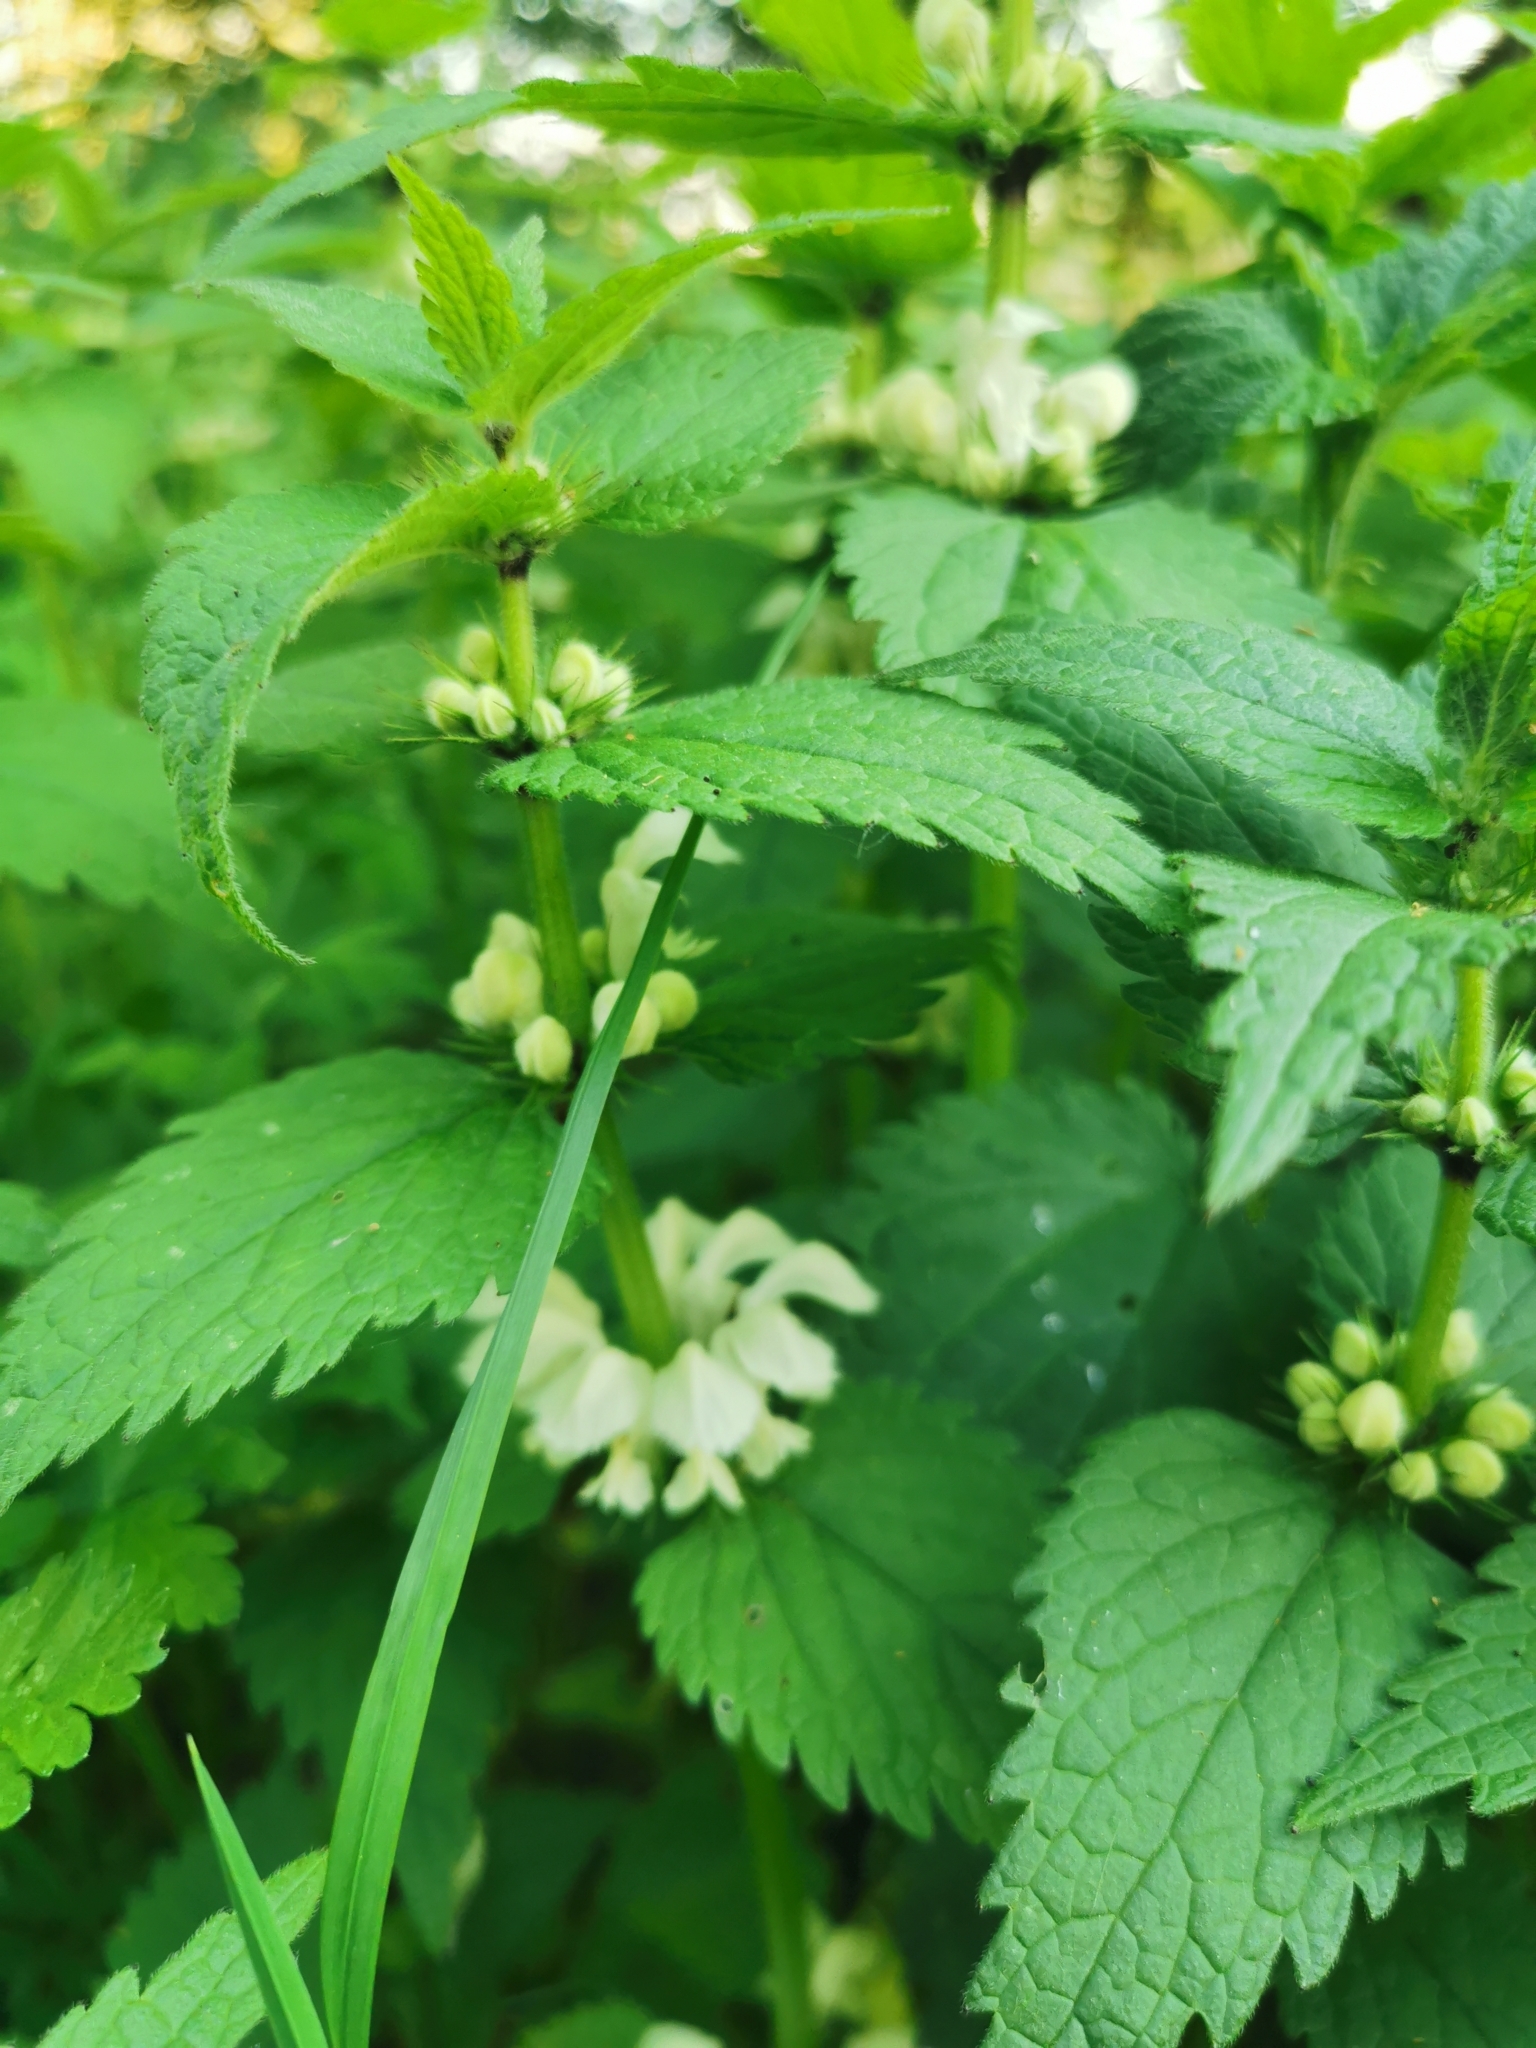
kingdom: Plantae
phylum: Tracheophyta
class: Magnoliopsida
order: Lamiales
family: Lamiaceae
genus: Lamium
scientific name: Lamium album
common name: White dead-nettle
